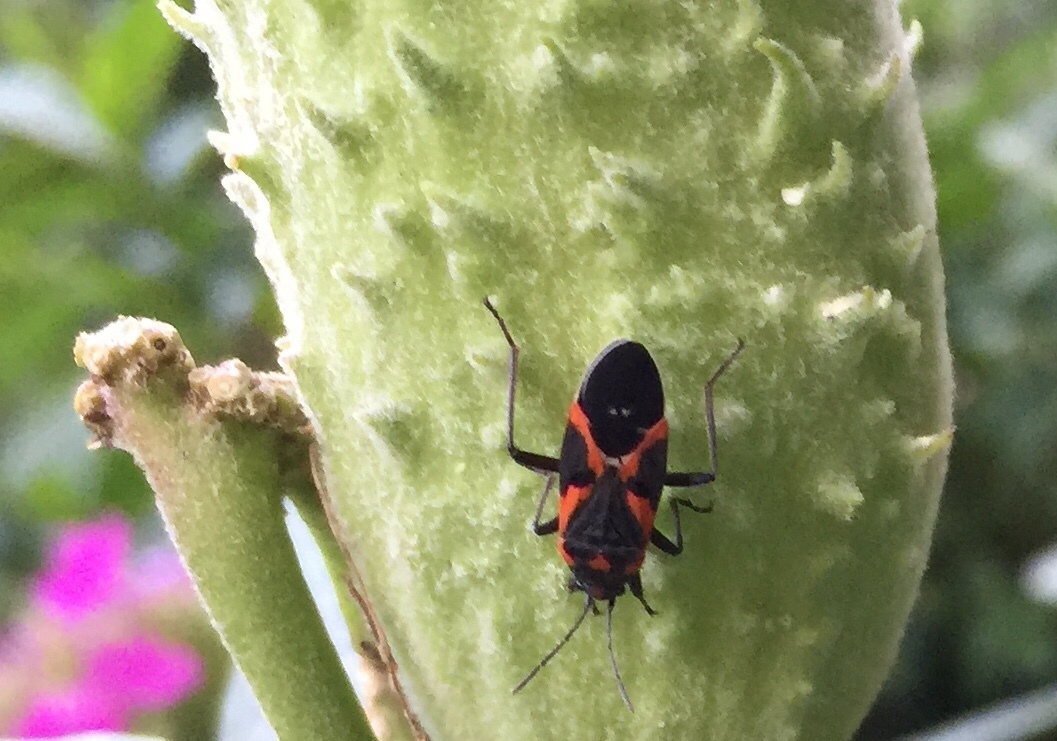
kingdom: Animalia
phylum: Arthropoda
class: Insecta
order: Hemiptera
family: Lygaeidae
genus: Lygaeus
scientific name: Lygaeus kalmii
